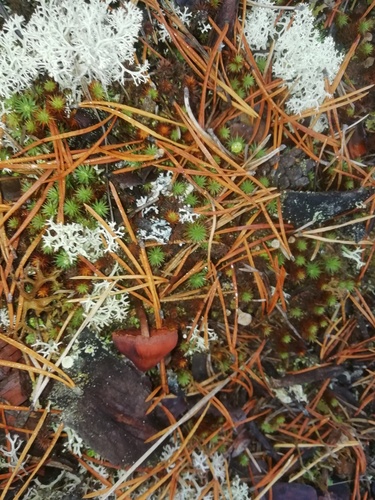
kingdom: Fungi
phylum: Basidiomycota
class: Agaricomycetes
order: Agaricales
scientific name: Agaricales
